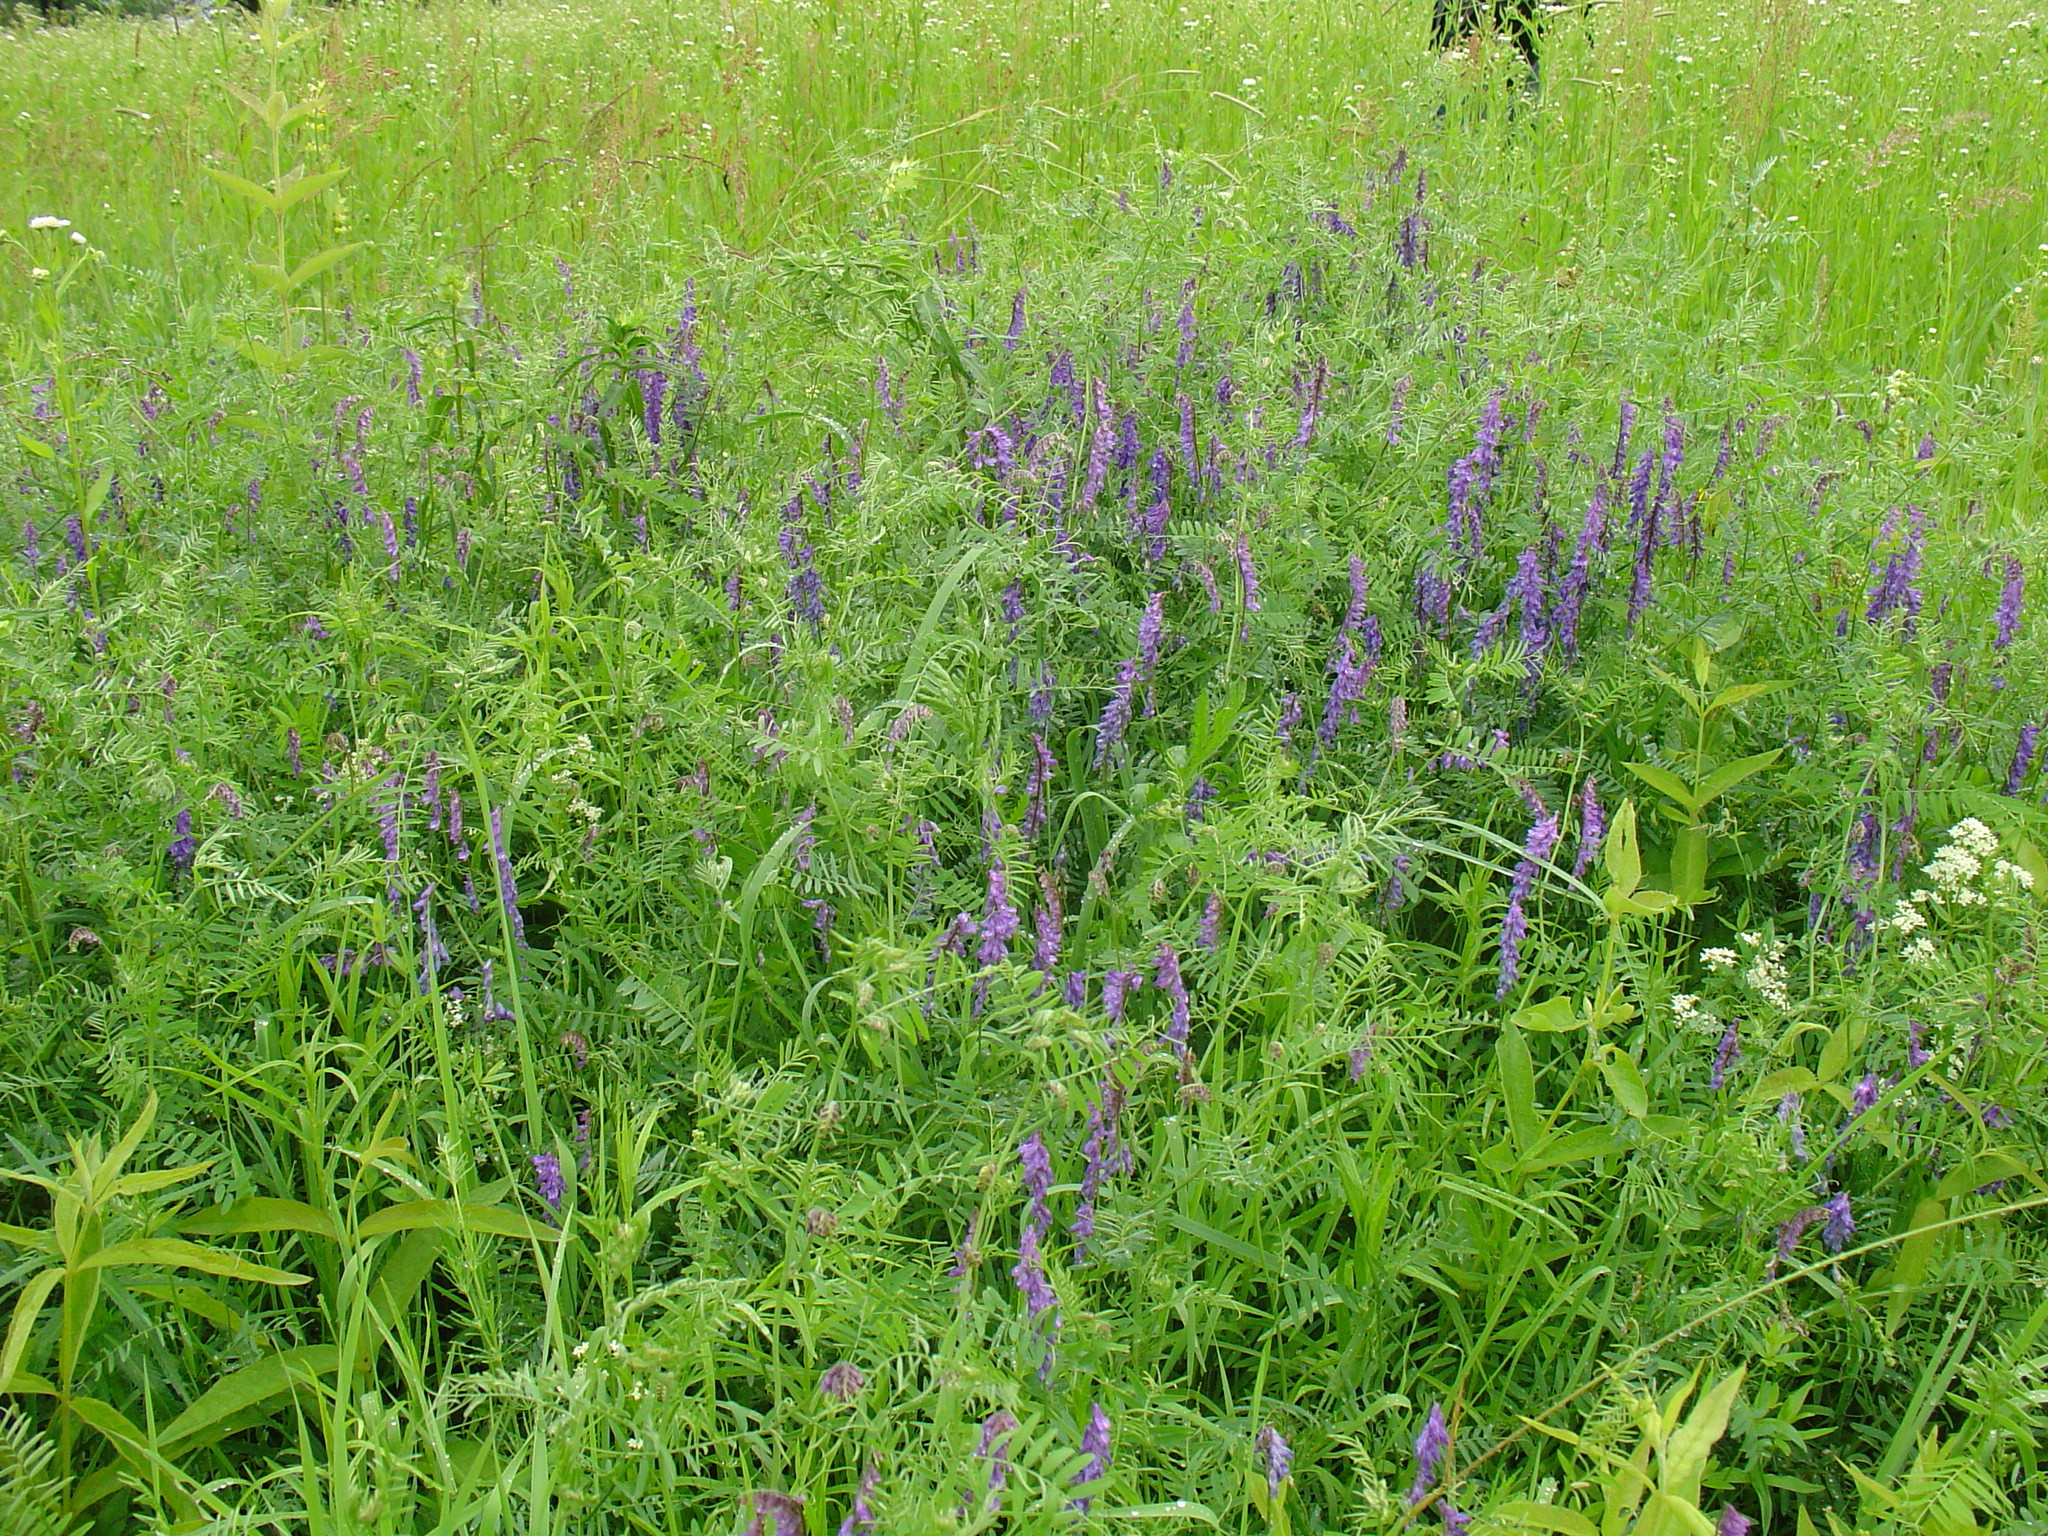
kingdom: Plantae
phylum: Tracheophyta
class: Magnoliopsida
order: Fabales
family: Fabaceae
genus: Vicia
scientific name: Vicia tenuifolia
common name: Fine-leaved vetch
